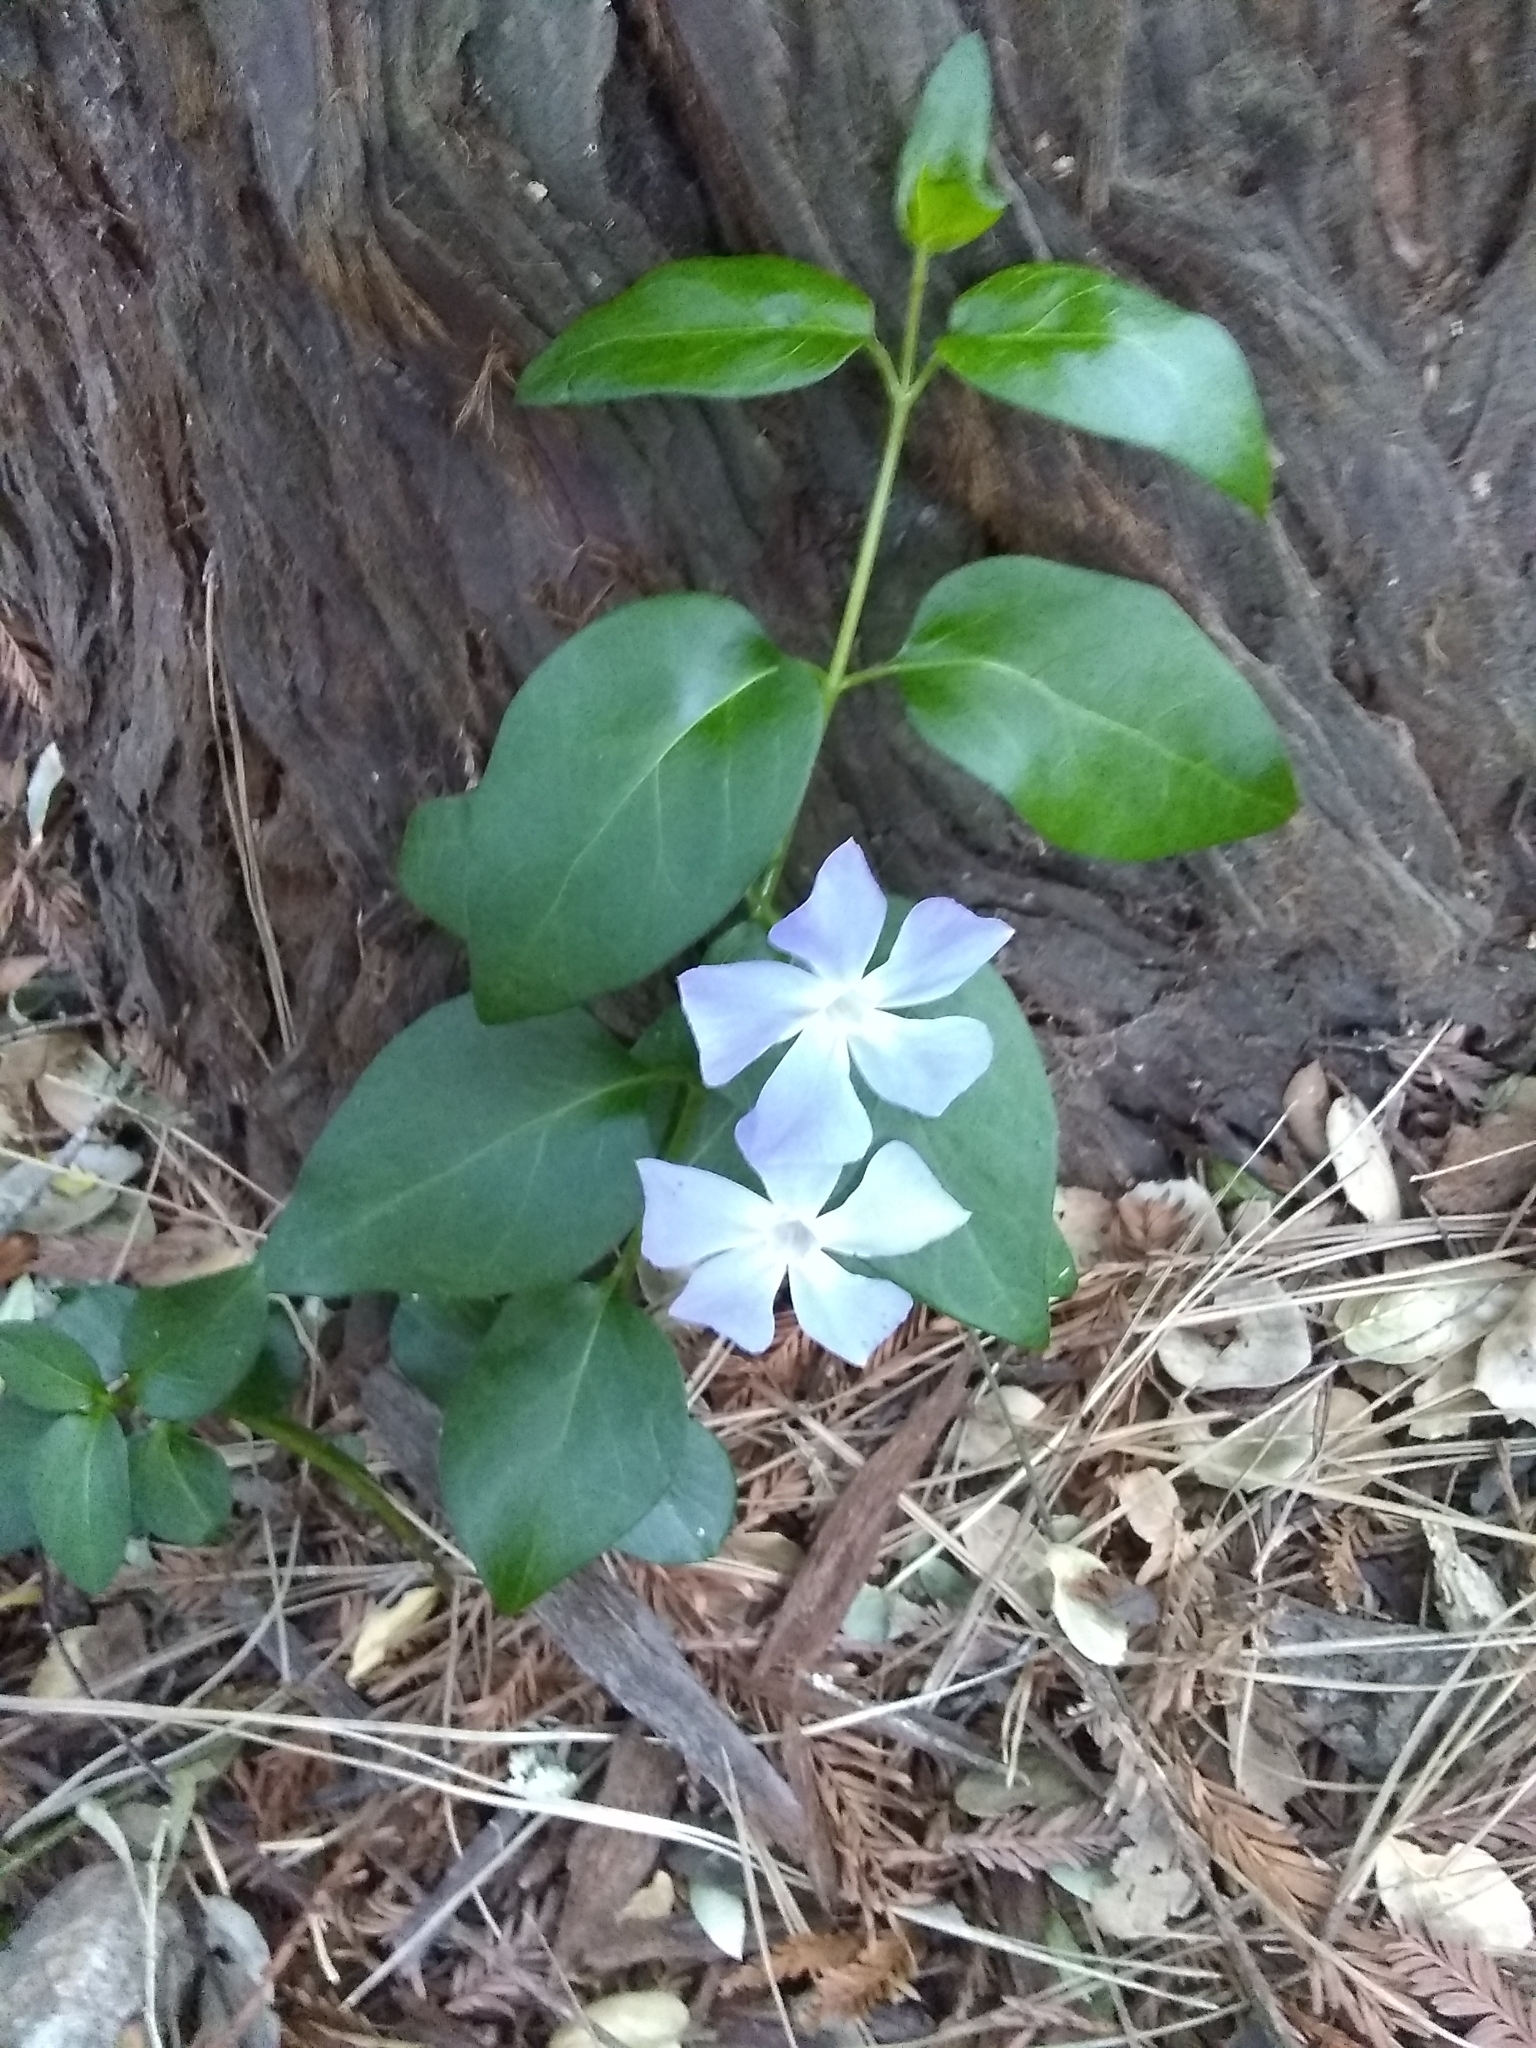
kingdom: Plantae
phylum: Tracheophyta
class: Magnoliopsida
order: Gentianales
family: Apocynaceae
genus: Vinca
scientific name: Vinca major
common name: Greater periwinkle
